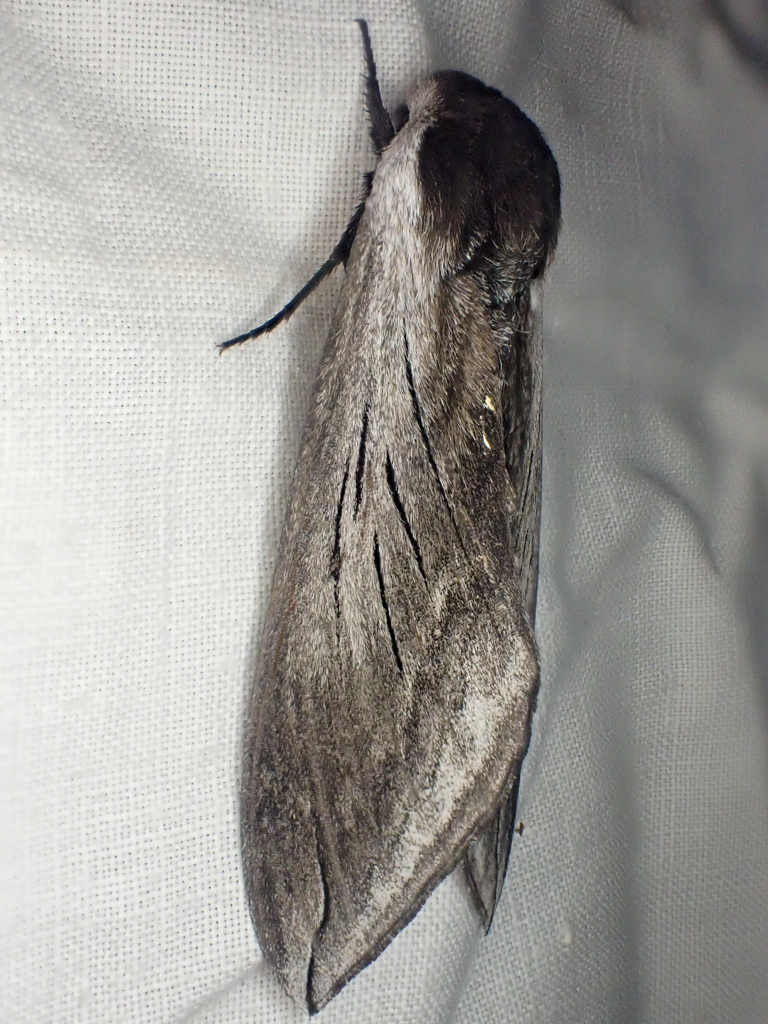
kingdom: Animalia
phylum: Arthropoda
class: Insecta
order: Lepidoptera
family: Sphingidae
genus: Sphinx
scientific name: Sphinx perelegans
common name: Elegant sphinx
